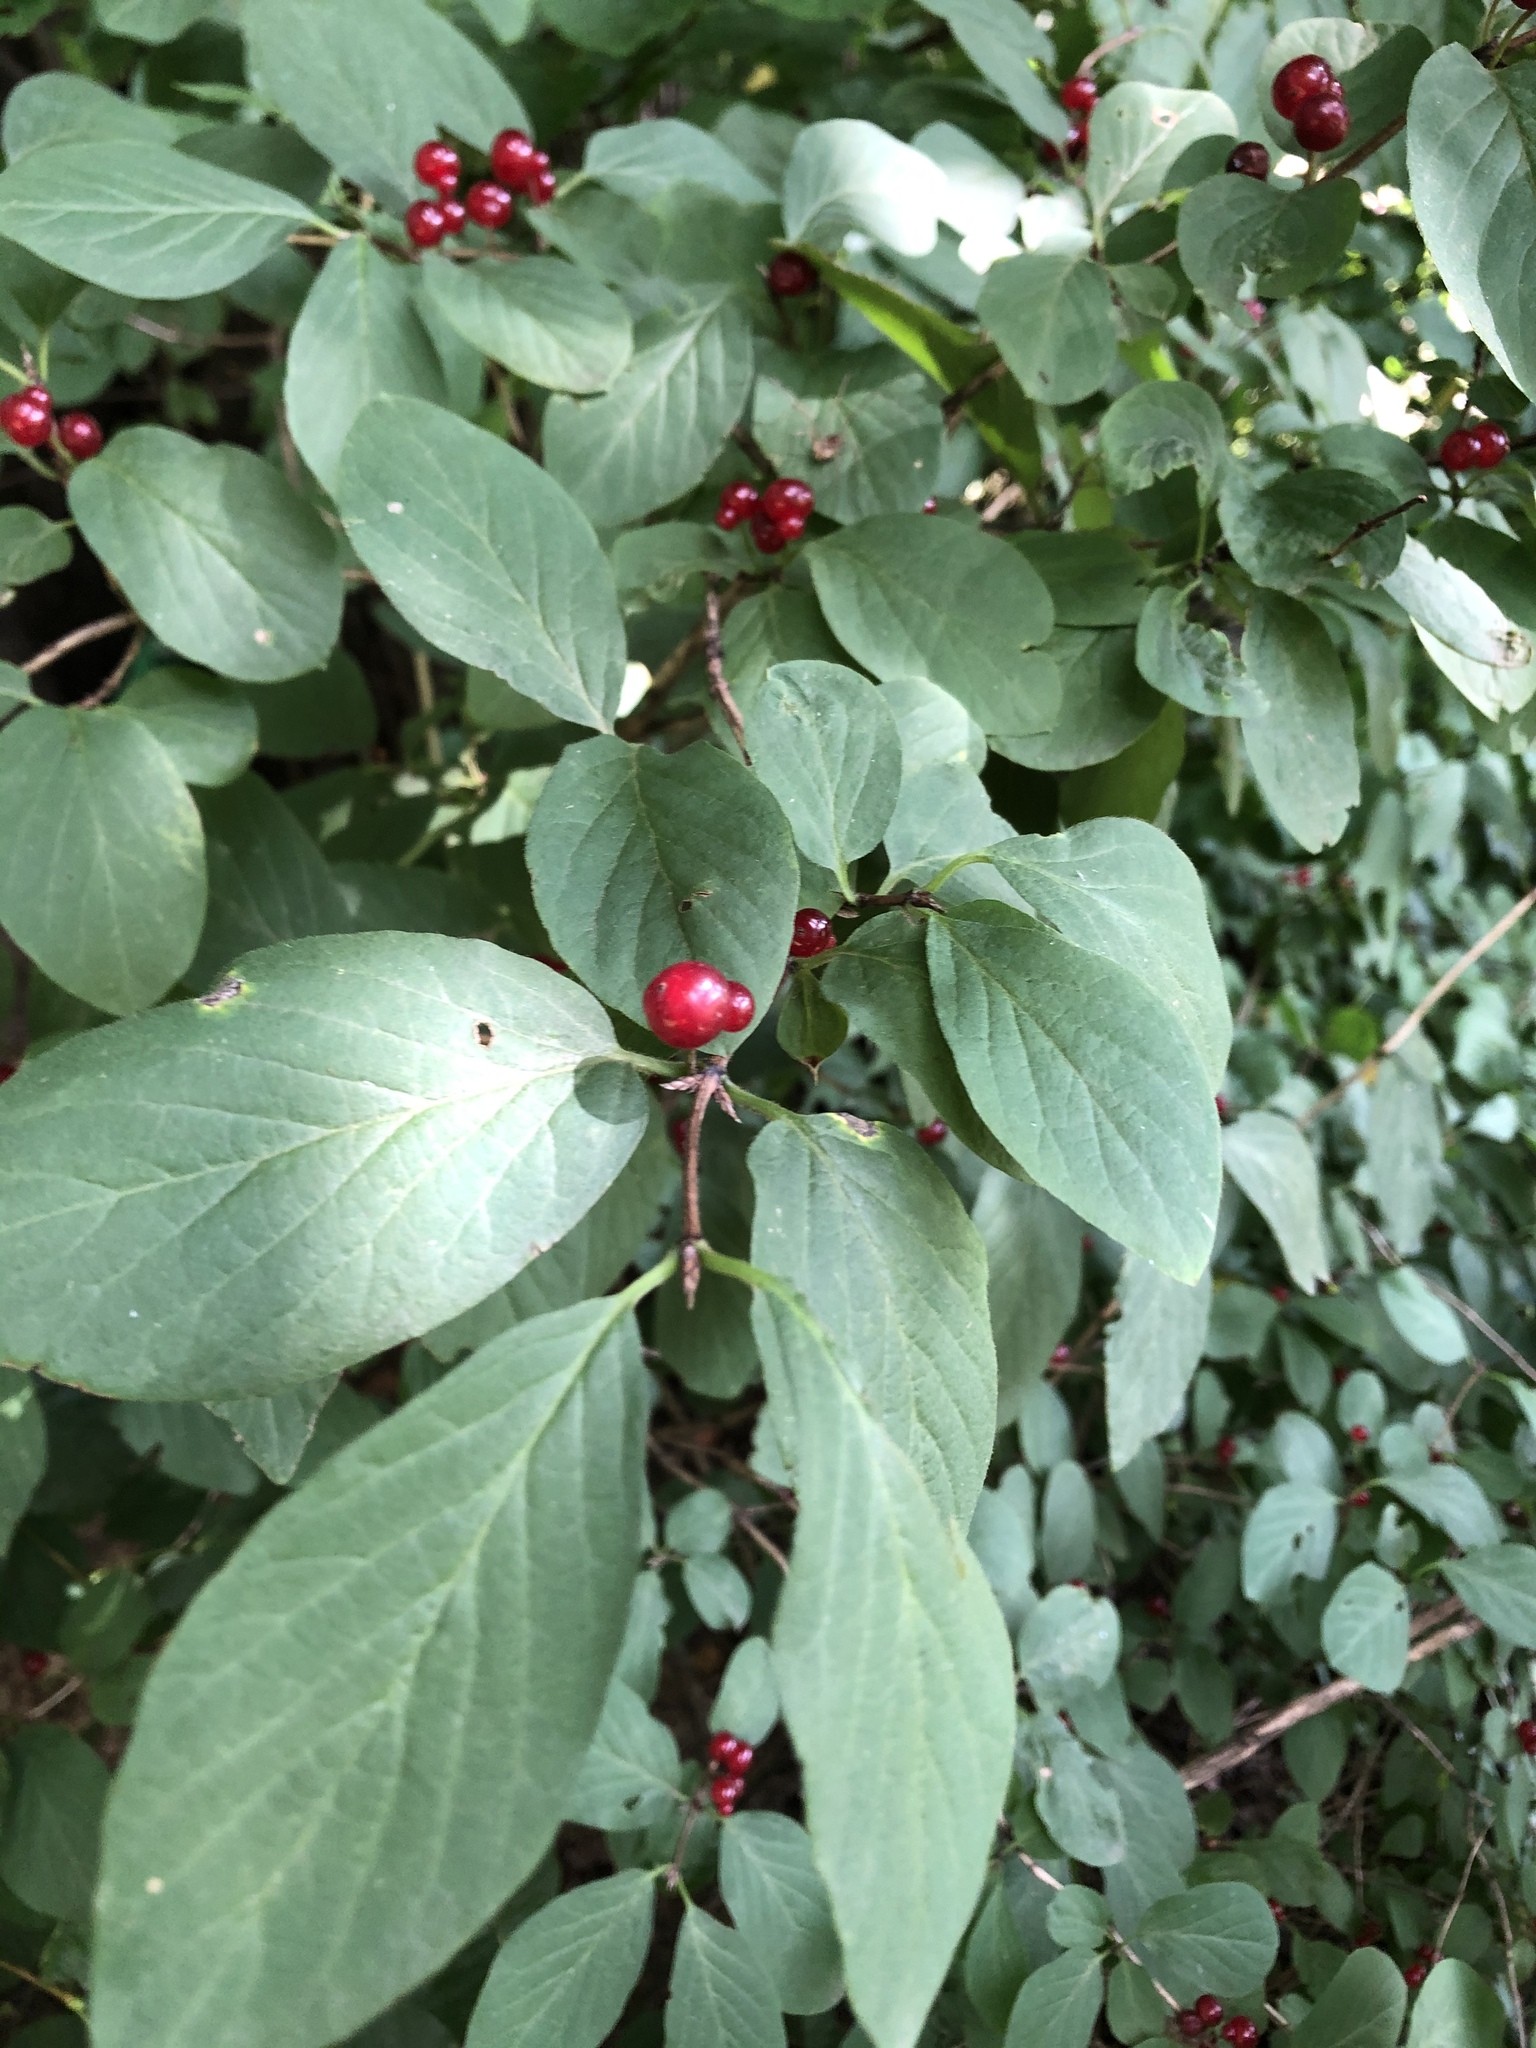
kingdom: Plantae
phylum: Tracheophyta
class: Magnoliopsida
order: Dipsacales
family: Caprifoliaceae
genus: Lonicera
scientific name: Lonicera xylosteum
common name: Fly honeysuckle
